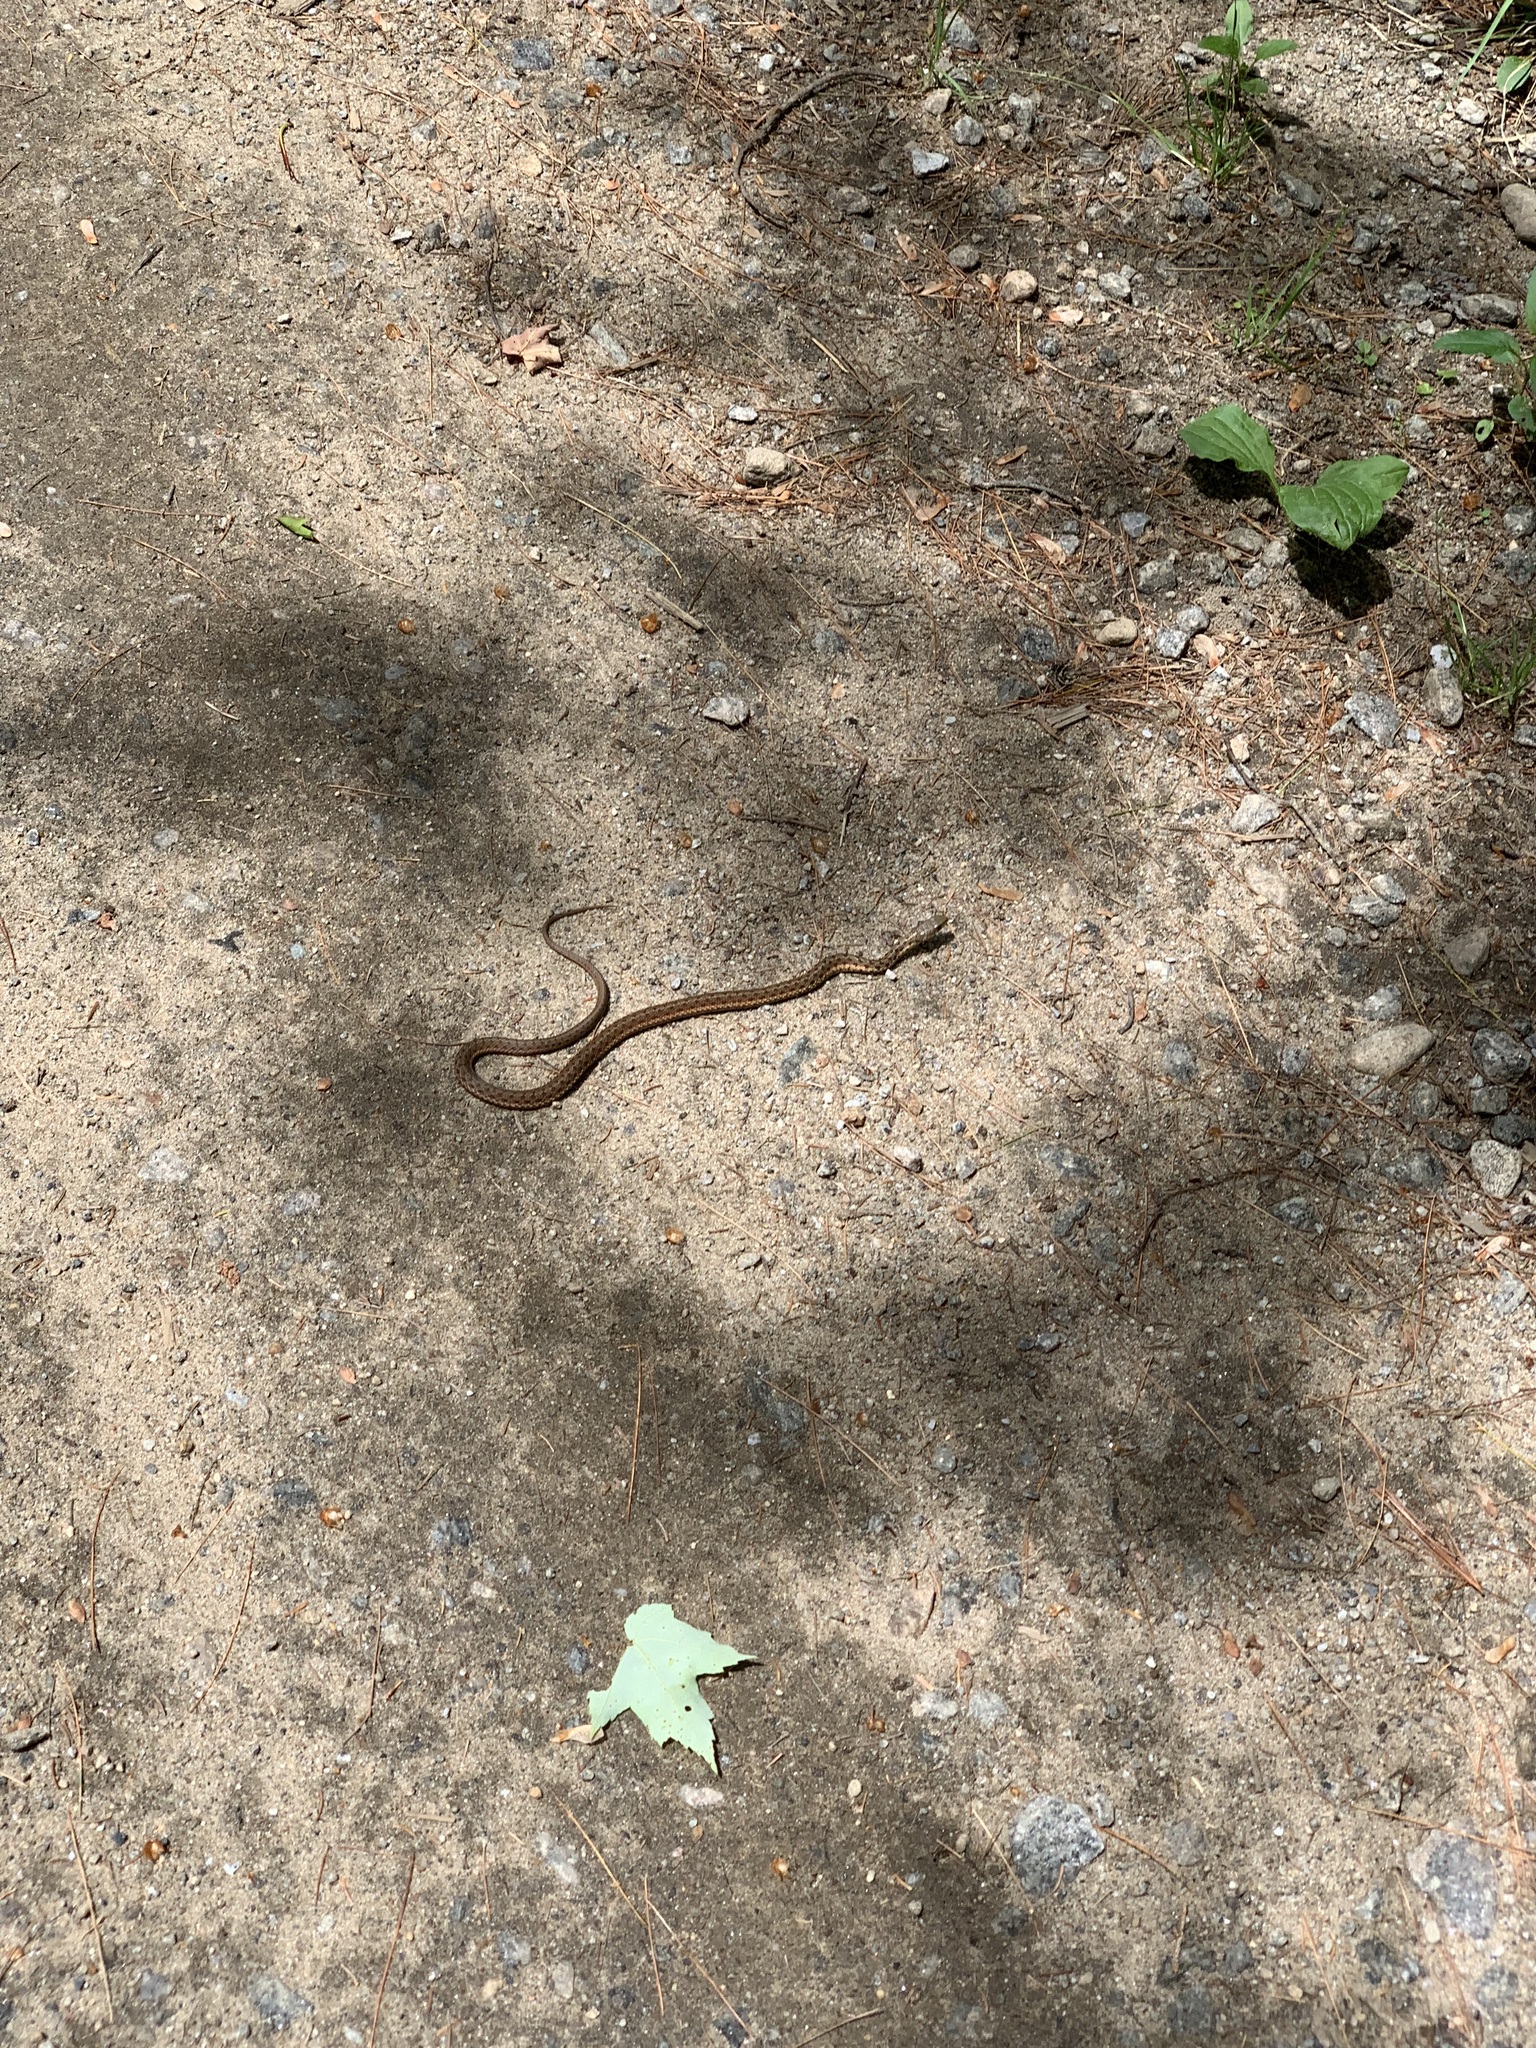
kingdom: Animalia
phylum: Chordata
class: Squamata
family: Colubridae
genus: Thamnophis
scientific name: Thamnophis sirtalis
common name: Common garter snake
